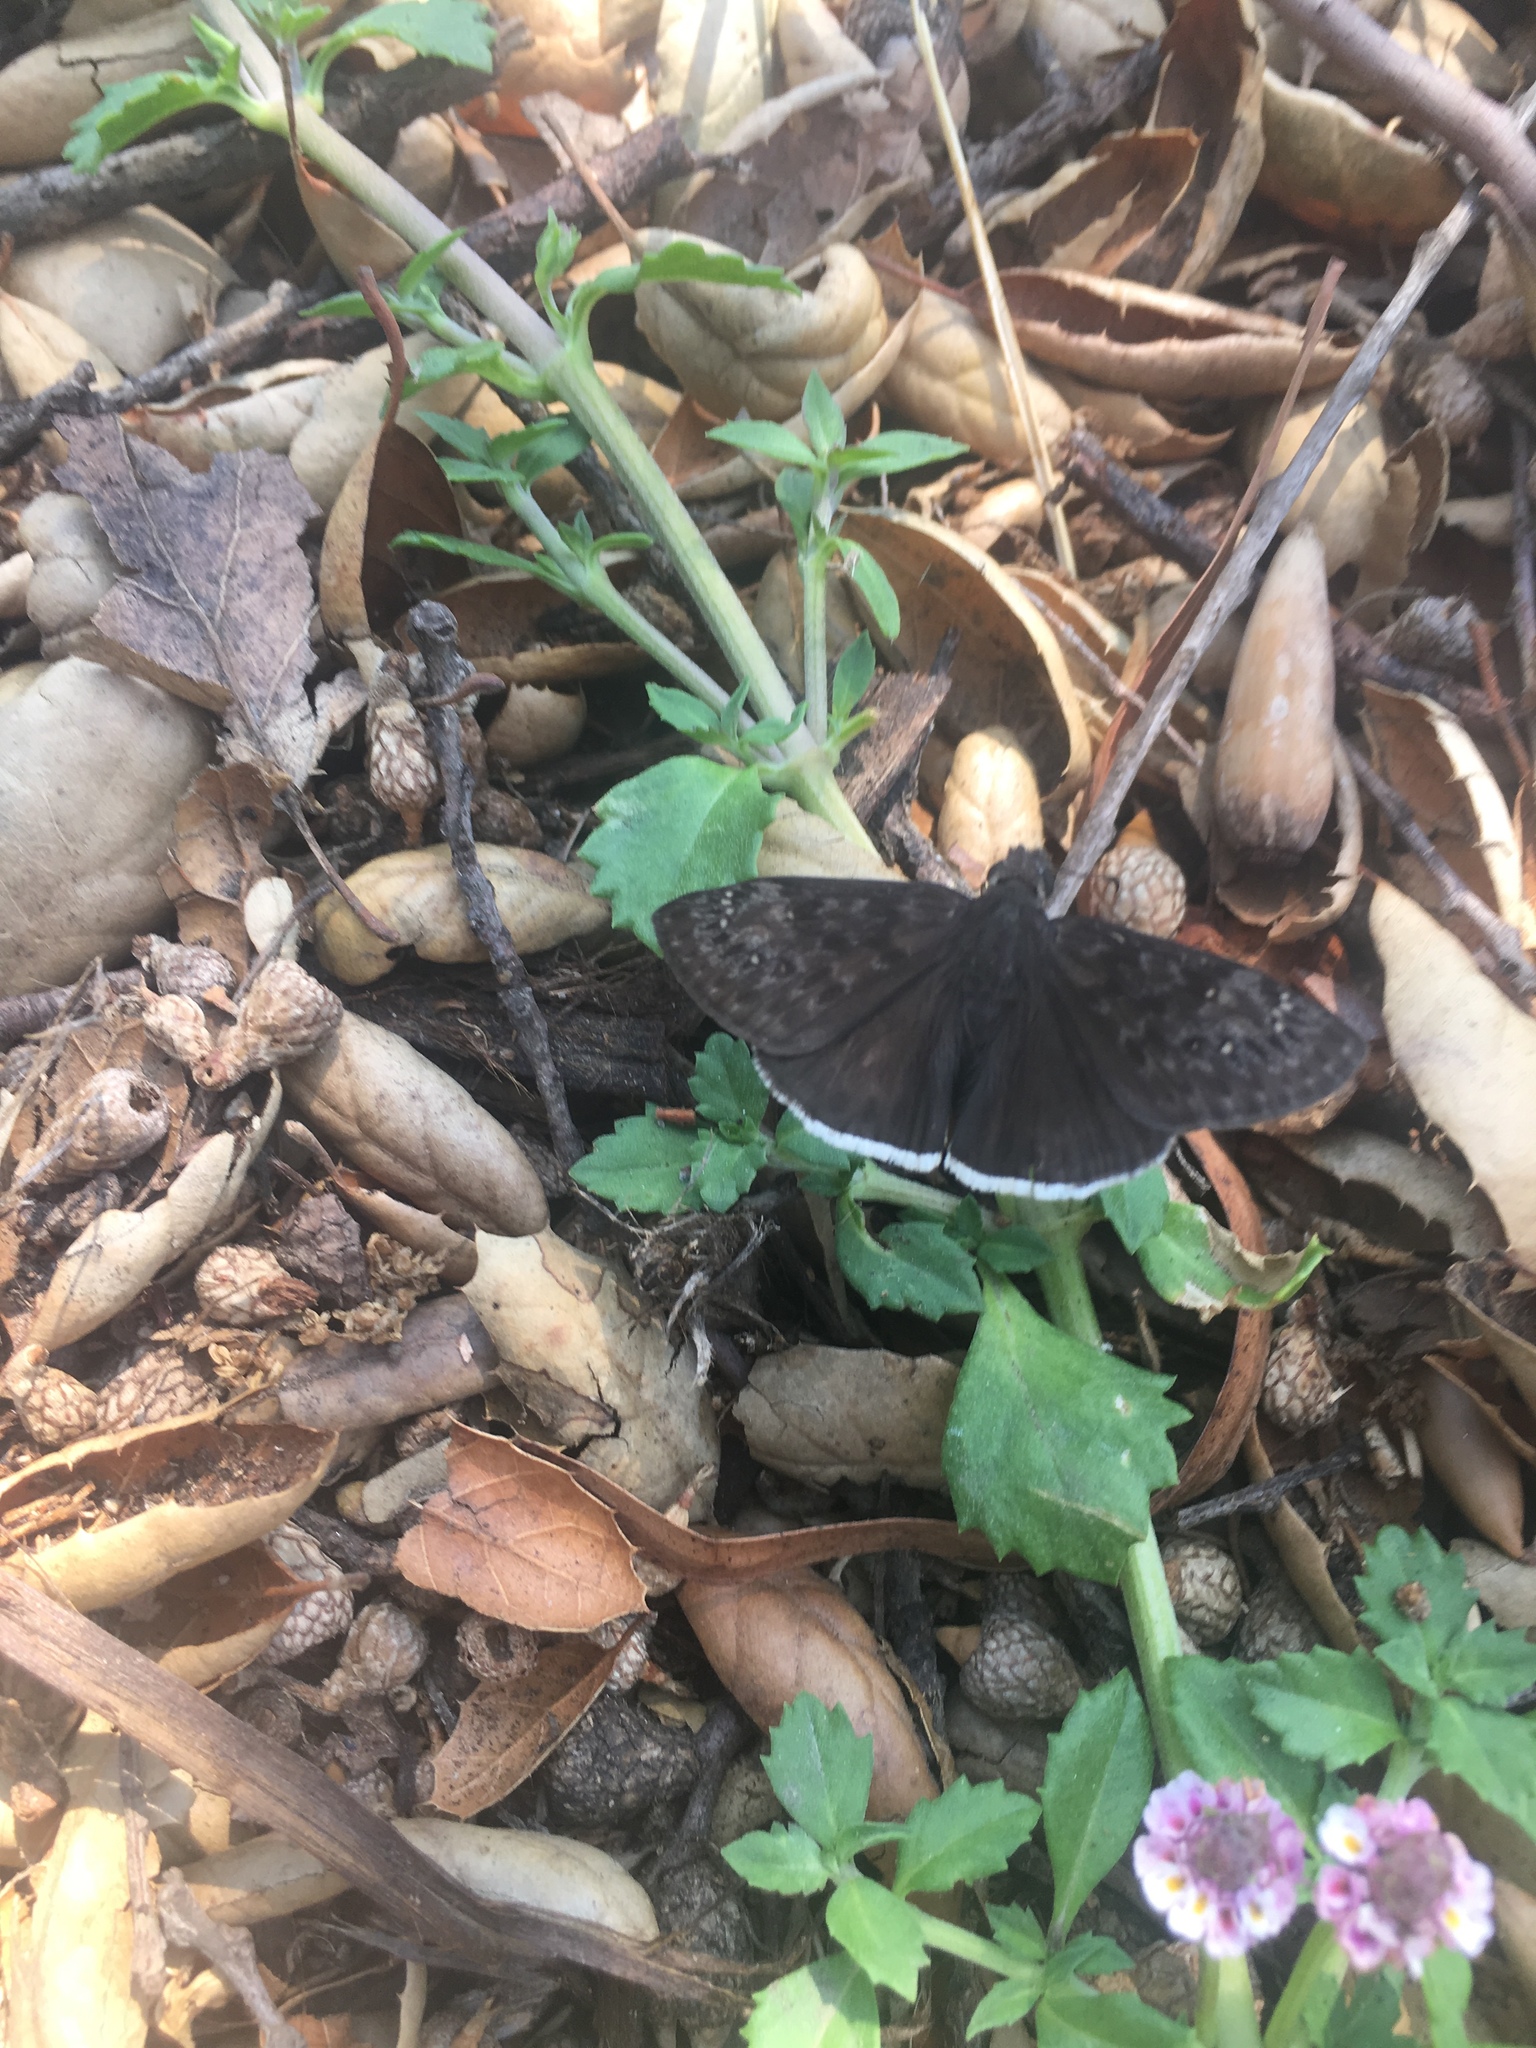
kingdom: Animalia
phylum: Arthropoda
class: Insecta
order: Lepidoptera
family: Hesperiidae
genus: Erynnis
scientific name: Erynnis funeralis
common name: Funereal duskywing
